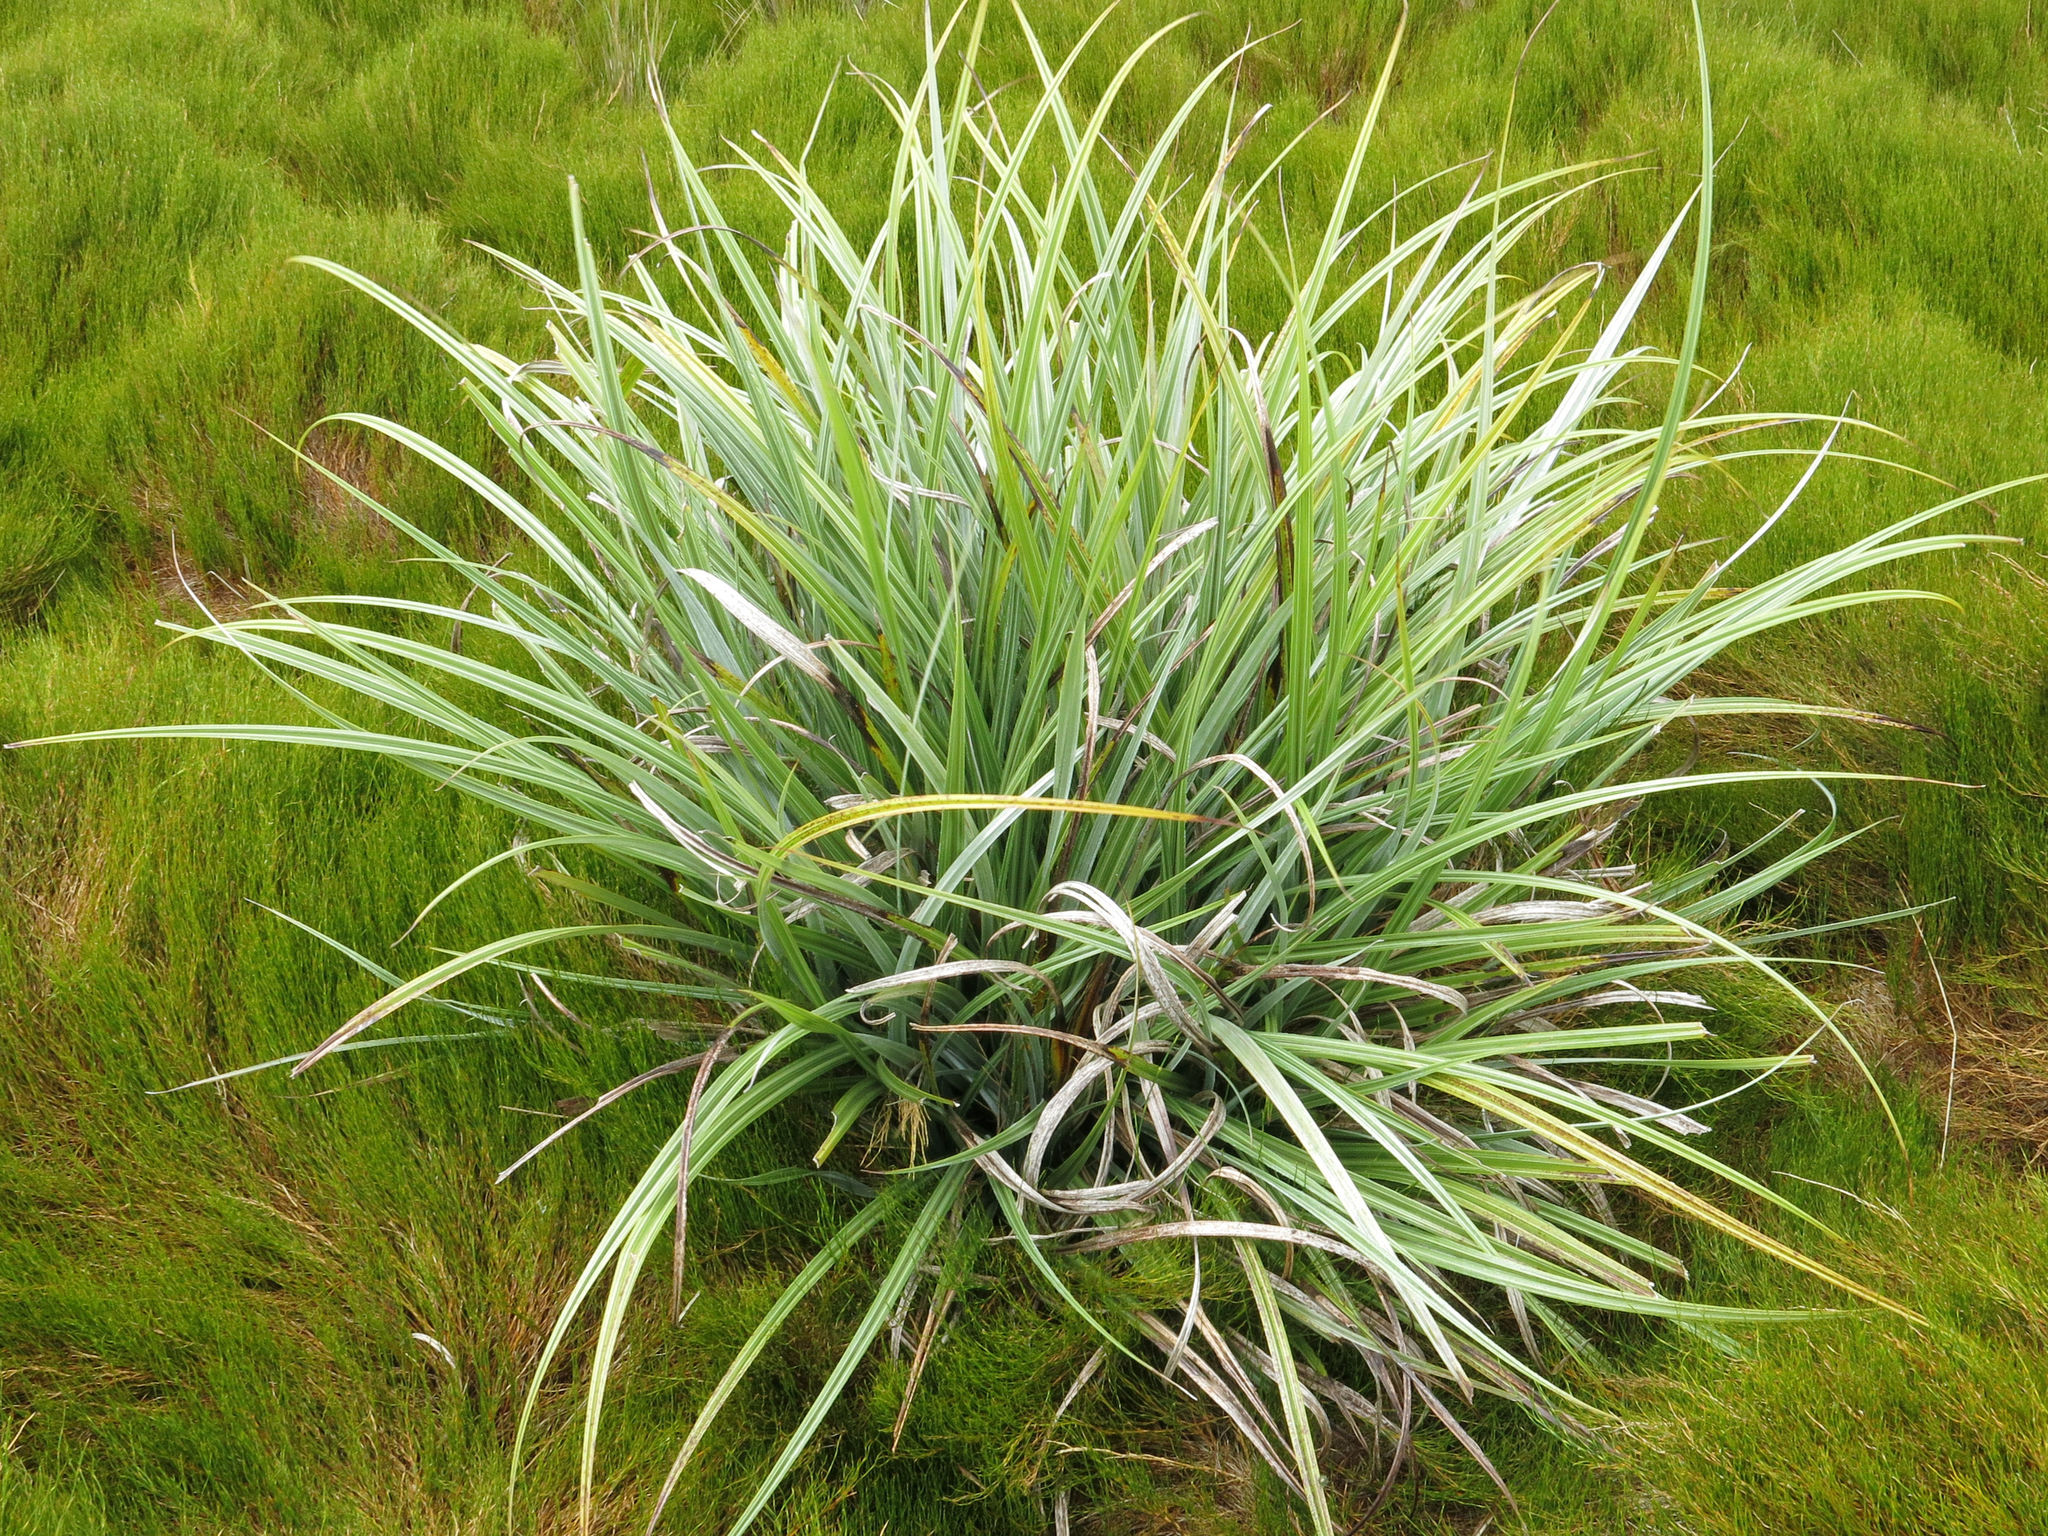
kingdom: Plantae
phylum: Tracheophyta
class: Liliopsida
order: Asparagales
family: Asteliaceae
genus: Astelia
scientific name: Astelia nervosa
